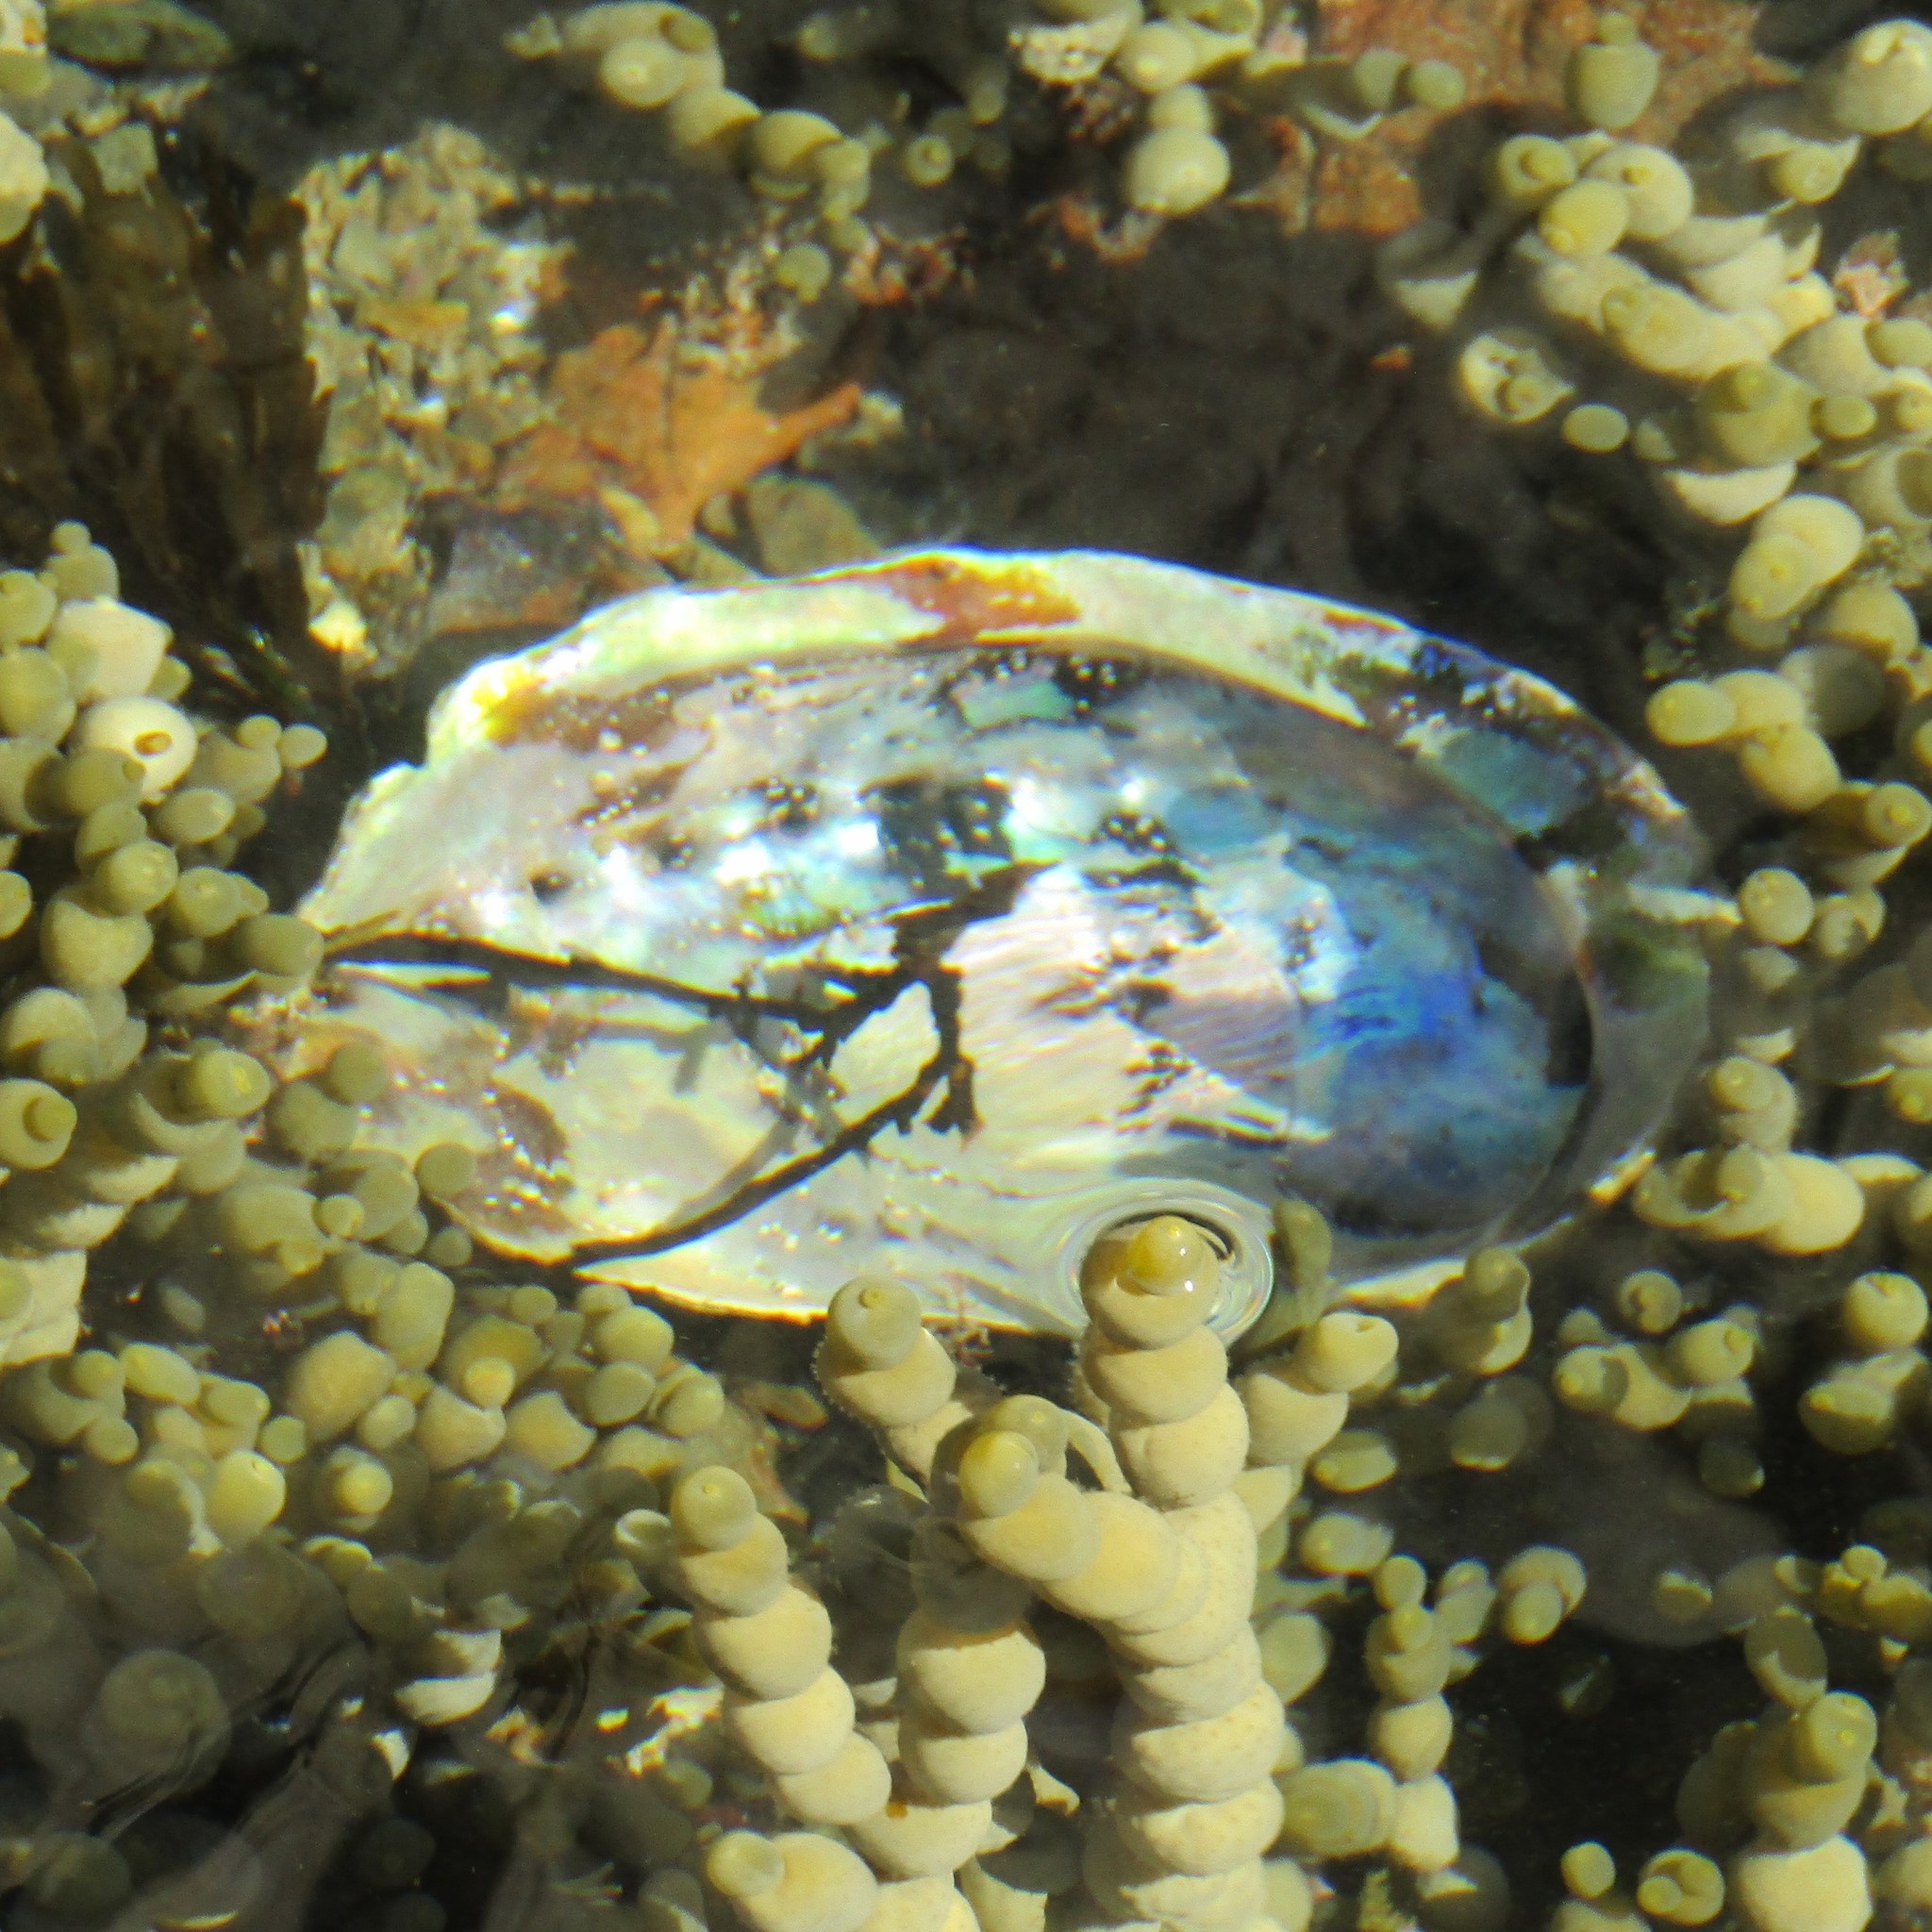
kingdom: Animalia
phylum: Mollusca
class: Gastropoda
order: Lepetellida
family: Haliotidae
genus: Haliotis
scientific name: Haliotis iris
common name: Abalone
